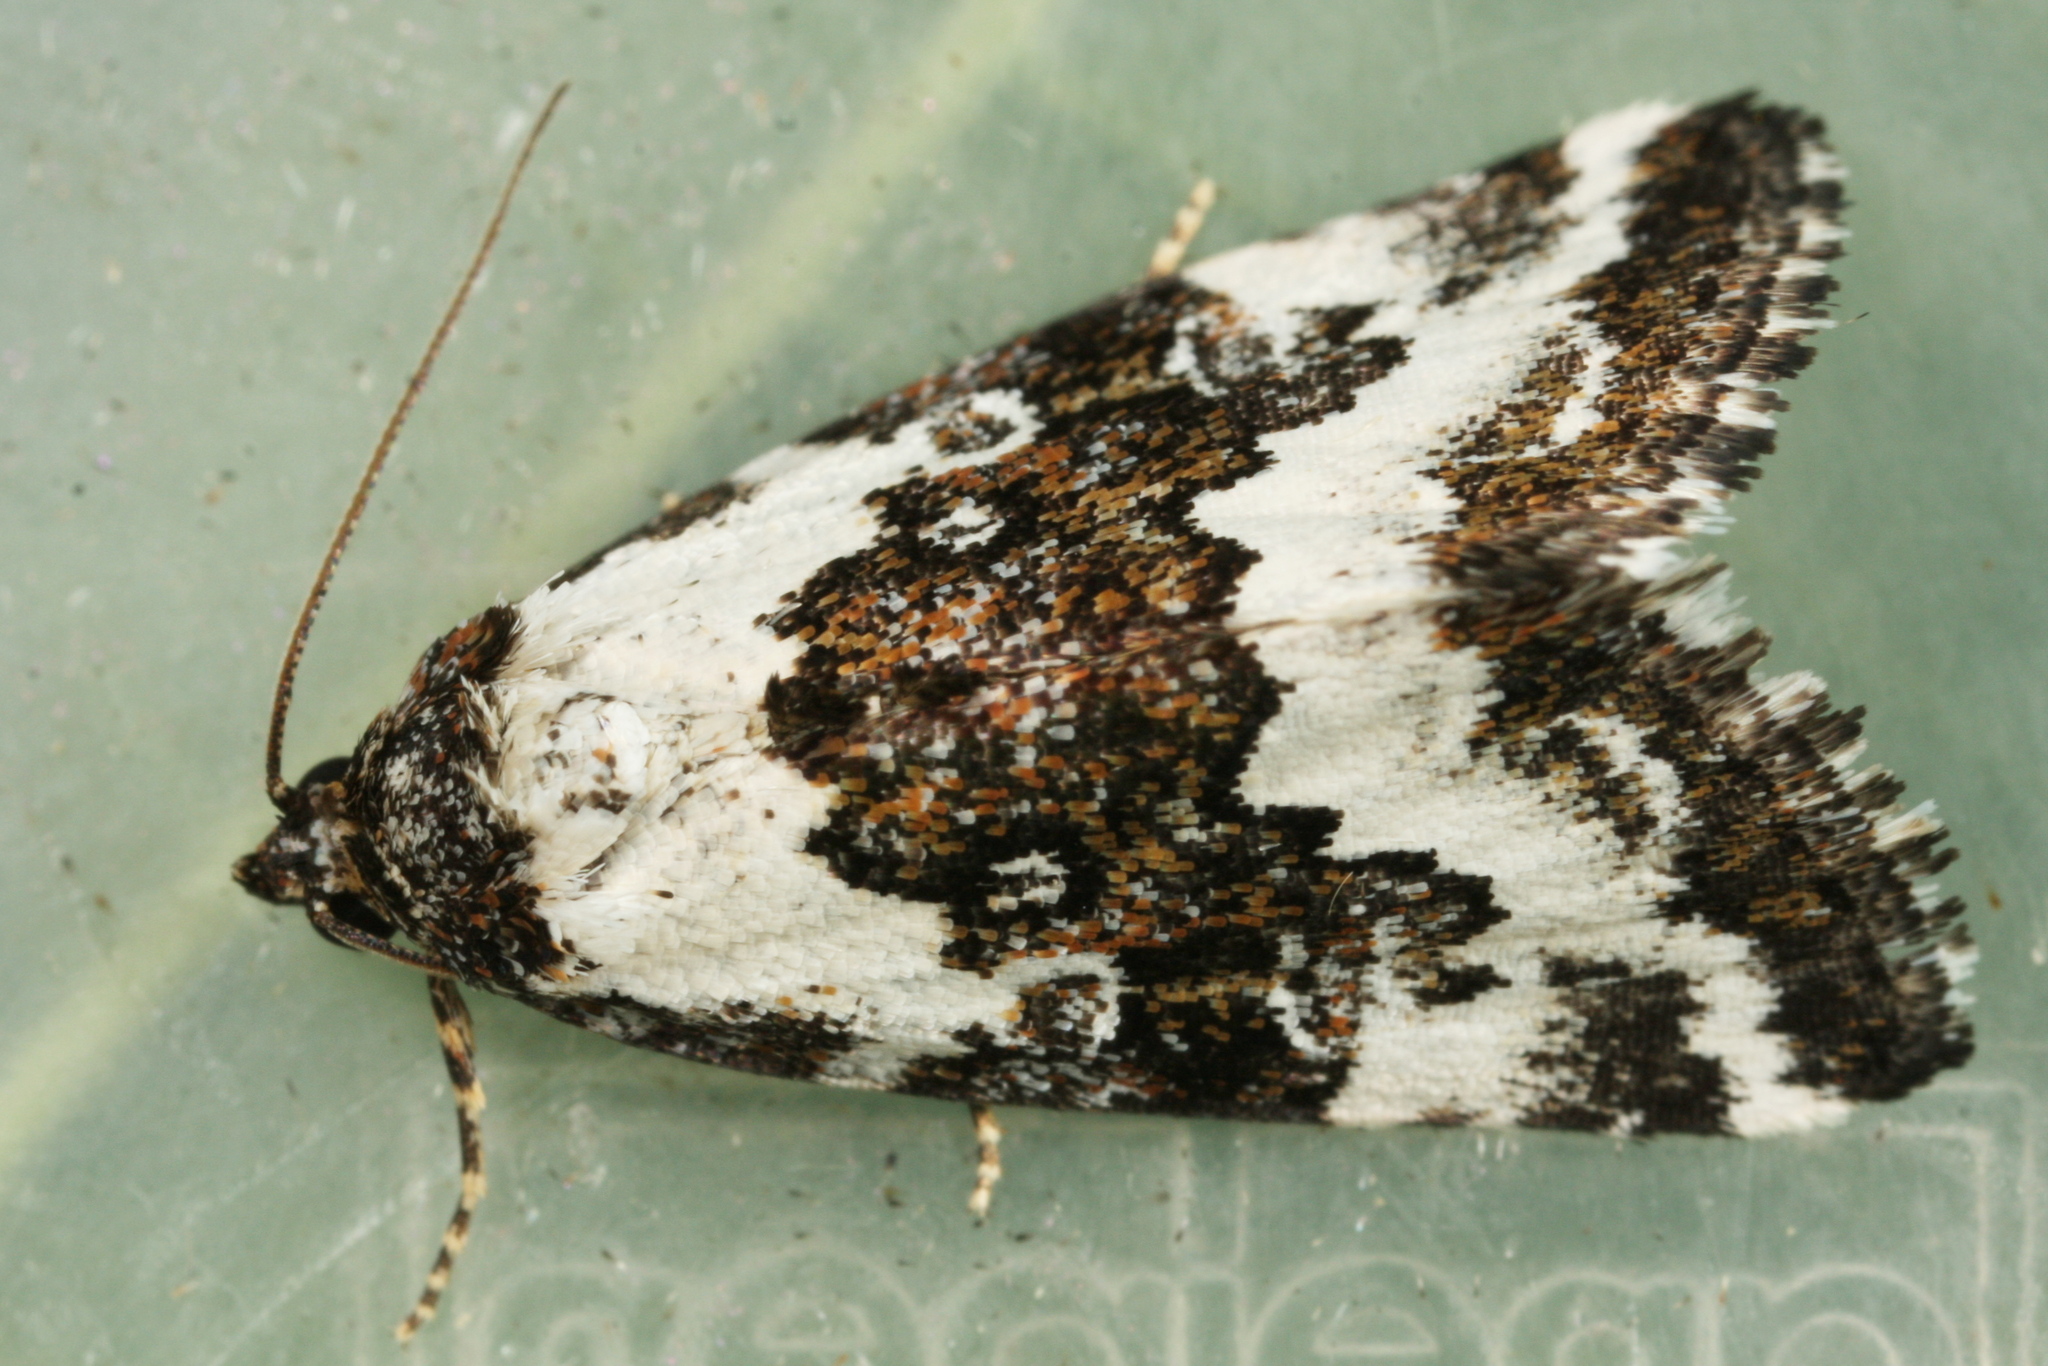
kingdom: Animalia
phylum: Arthropoda
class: Insecta
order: Lepidoptera
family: Noctuidae
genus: Deltote
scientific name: Deltote deceptoria
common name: Pretty marbled
